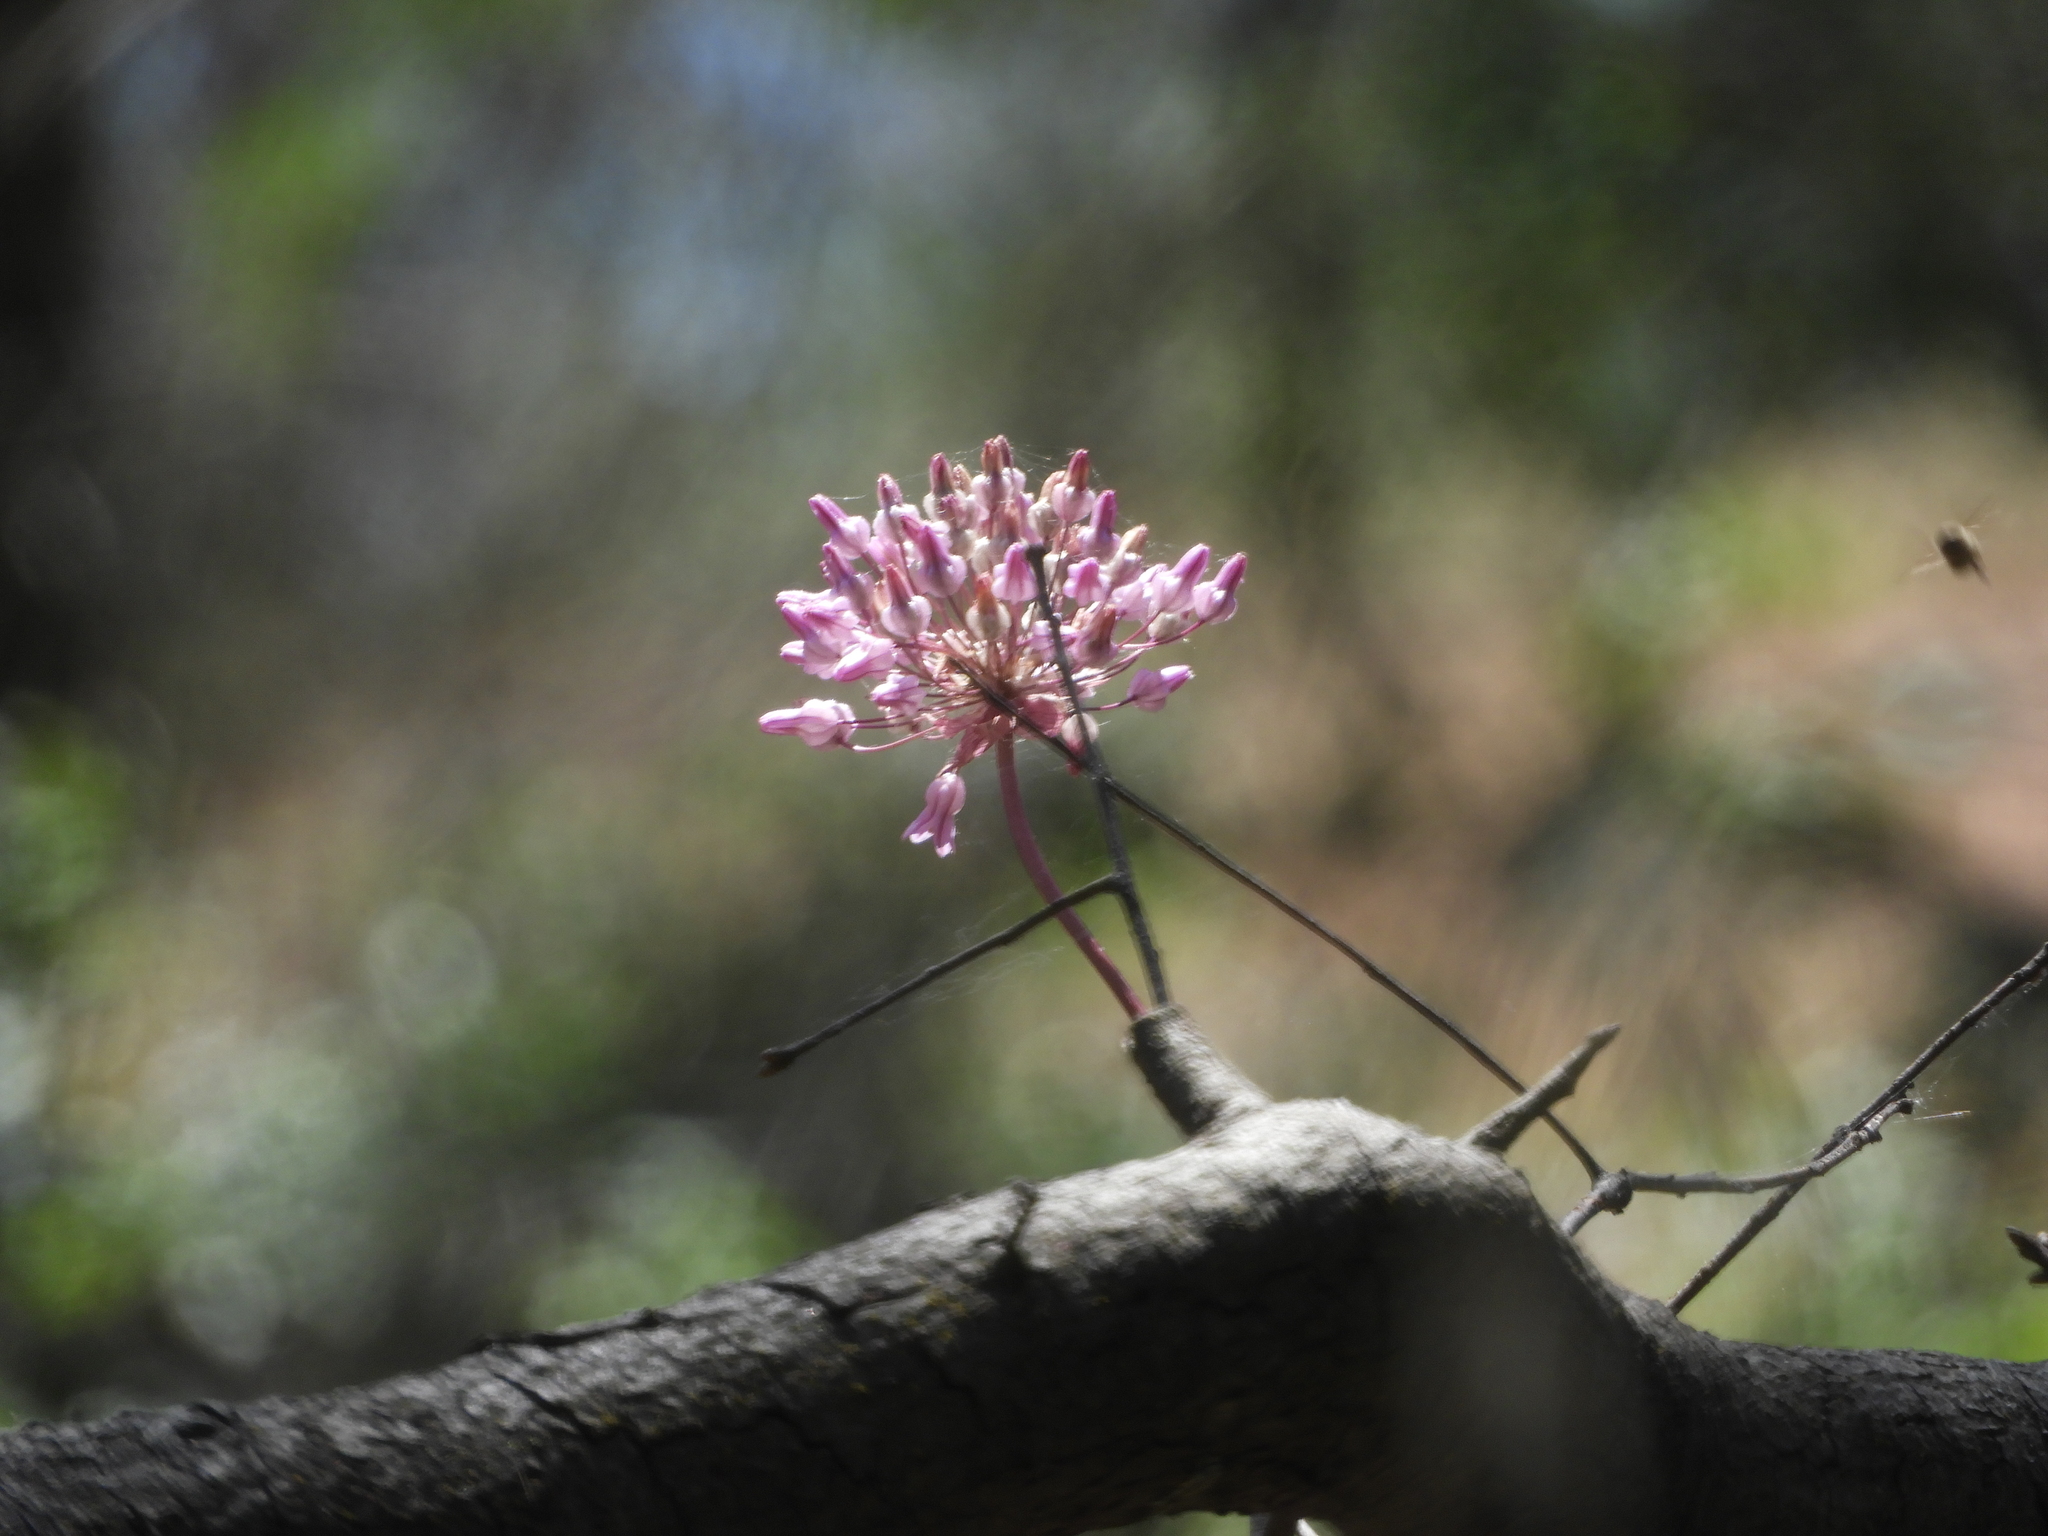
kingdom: Plantae
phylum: Tracheophyta
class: Liliopsida
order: Asparagales
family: Asparagaceae
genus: Dichelostemma
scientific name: Dichelostemma volubile
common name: Trining brodiaea
